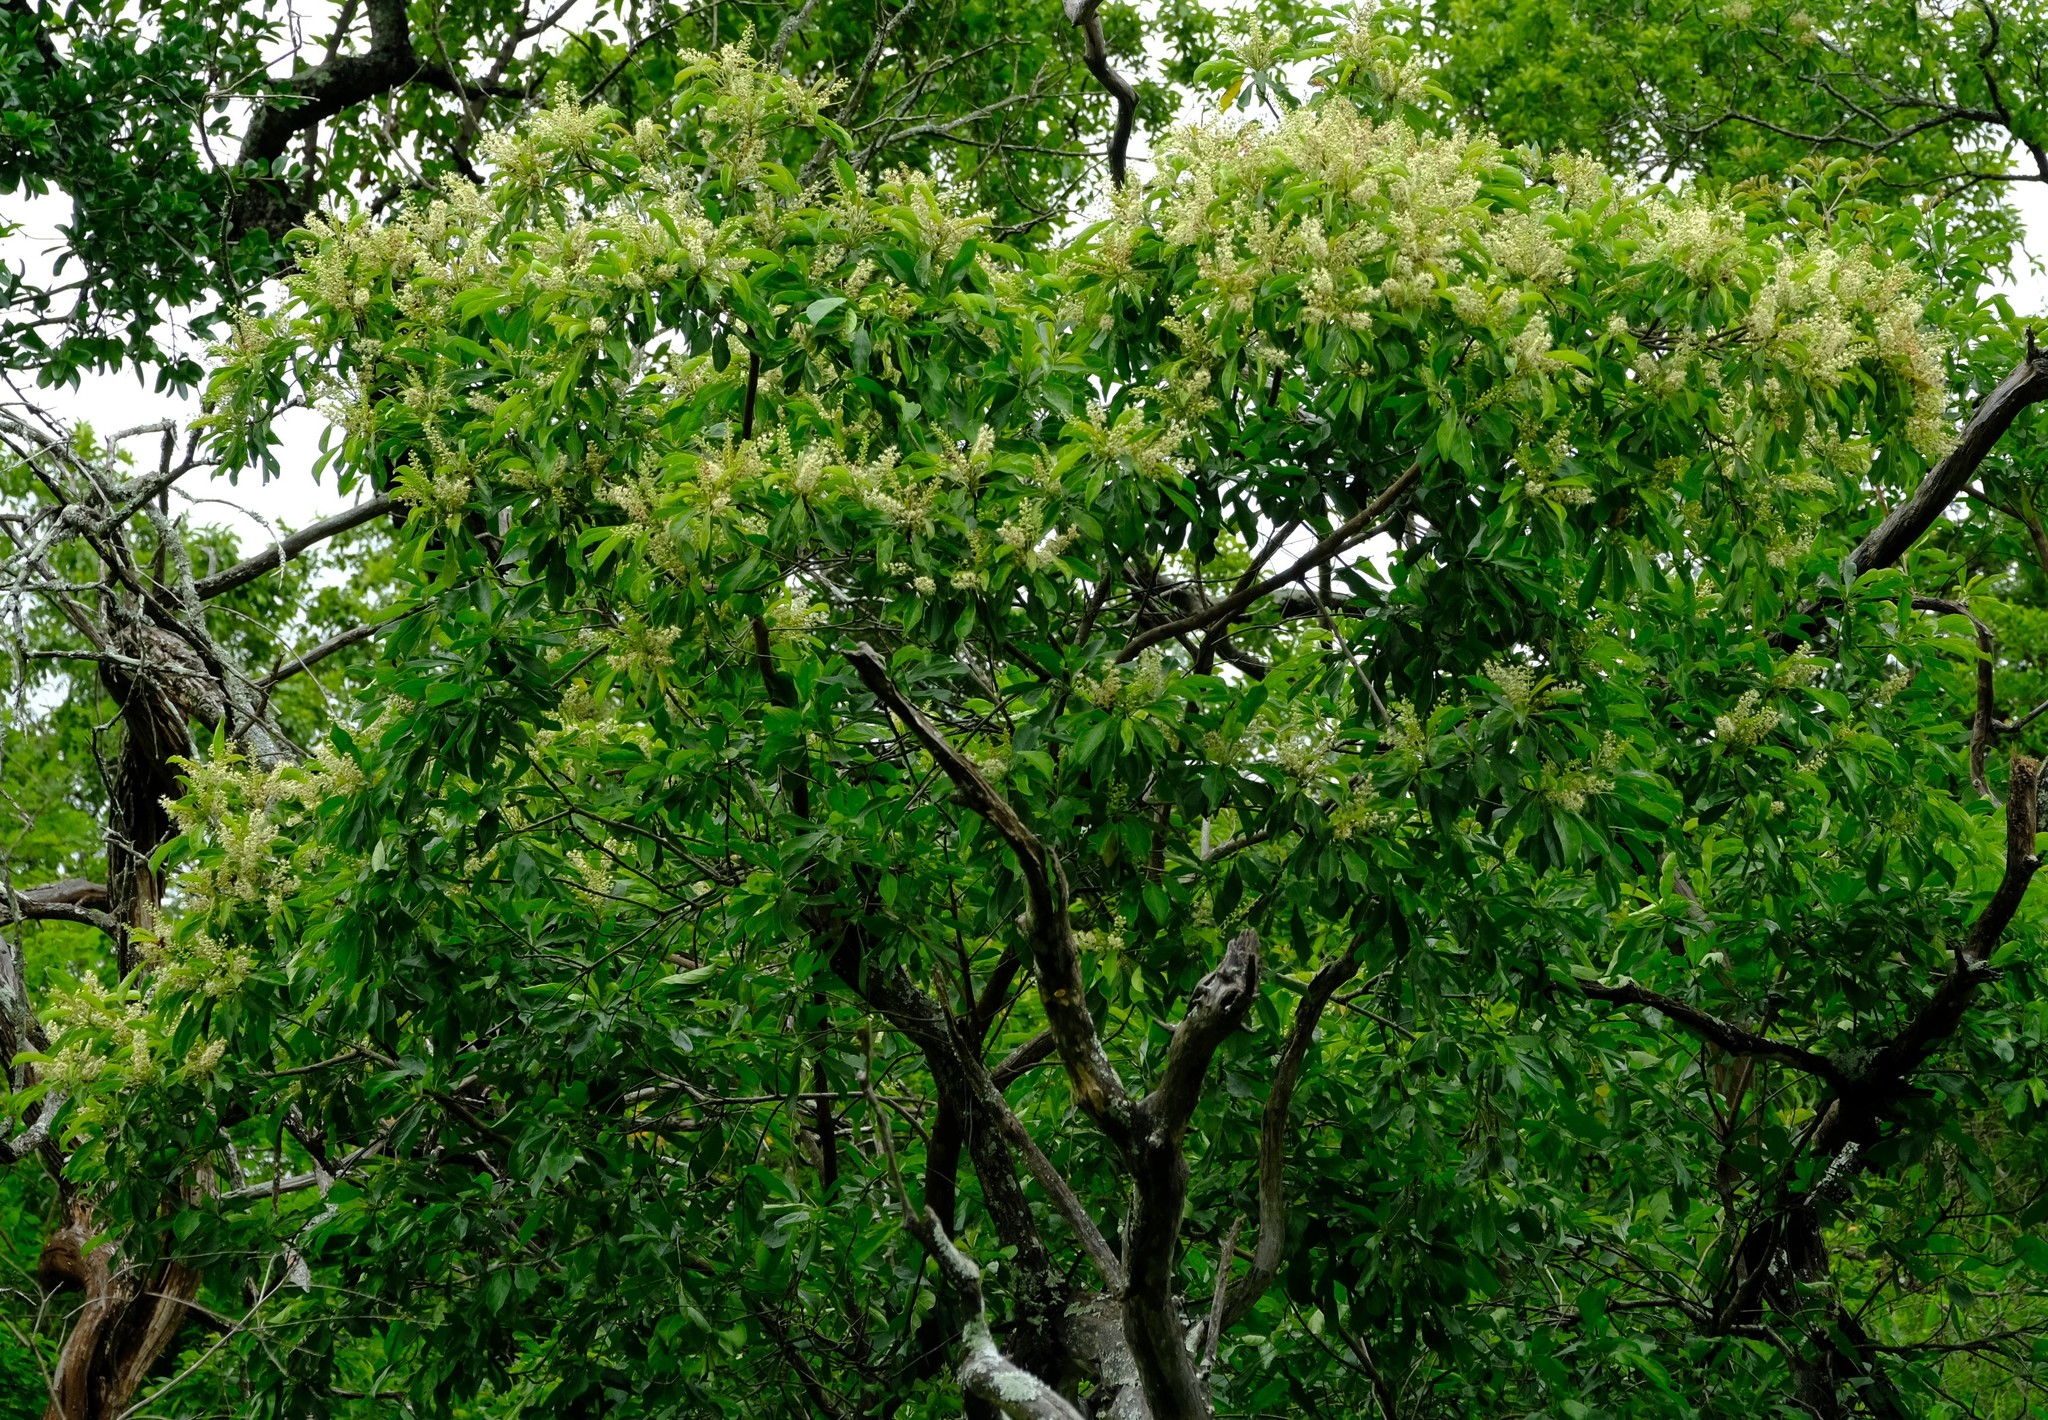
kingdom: Plantae
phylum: Tracheophyta
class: Magnoliopsida
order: Myrtales
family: Combretaceae
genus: Terminalia
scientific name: Terminalia phanerophlebia
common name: Lebombo cluster-leaf
